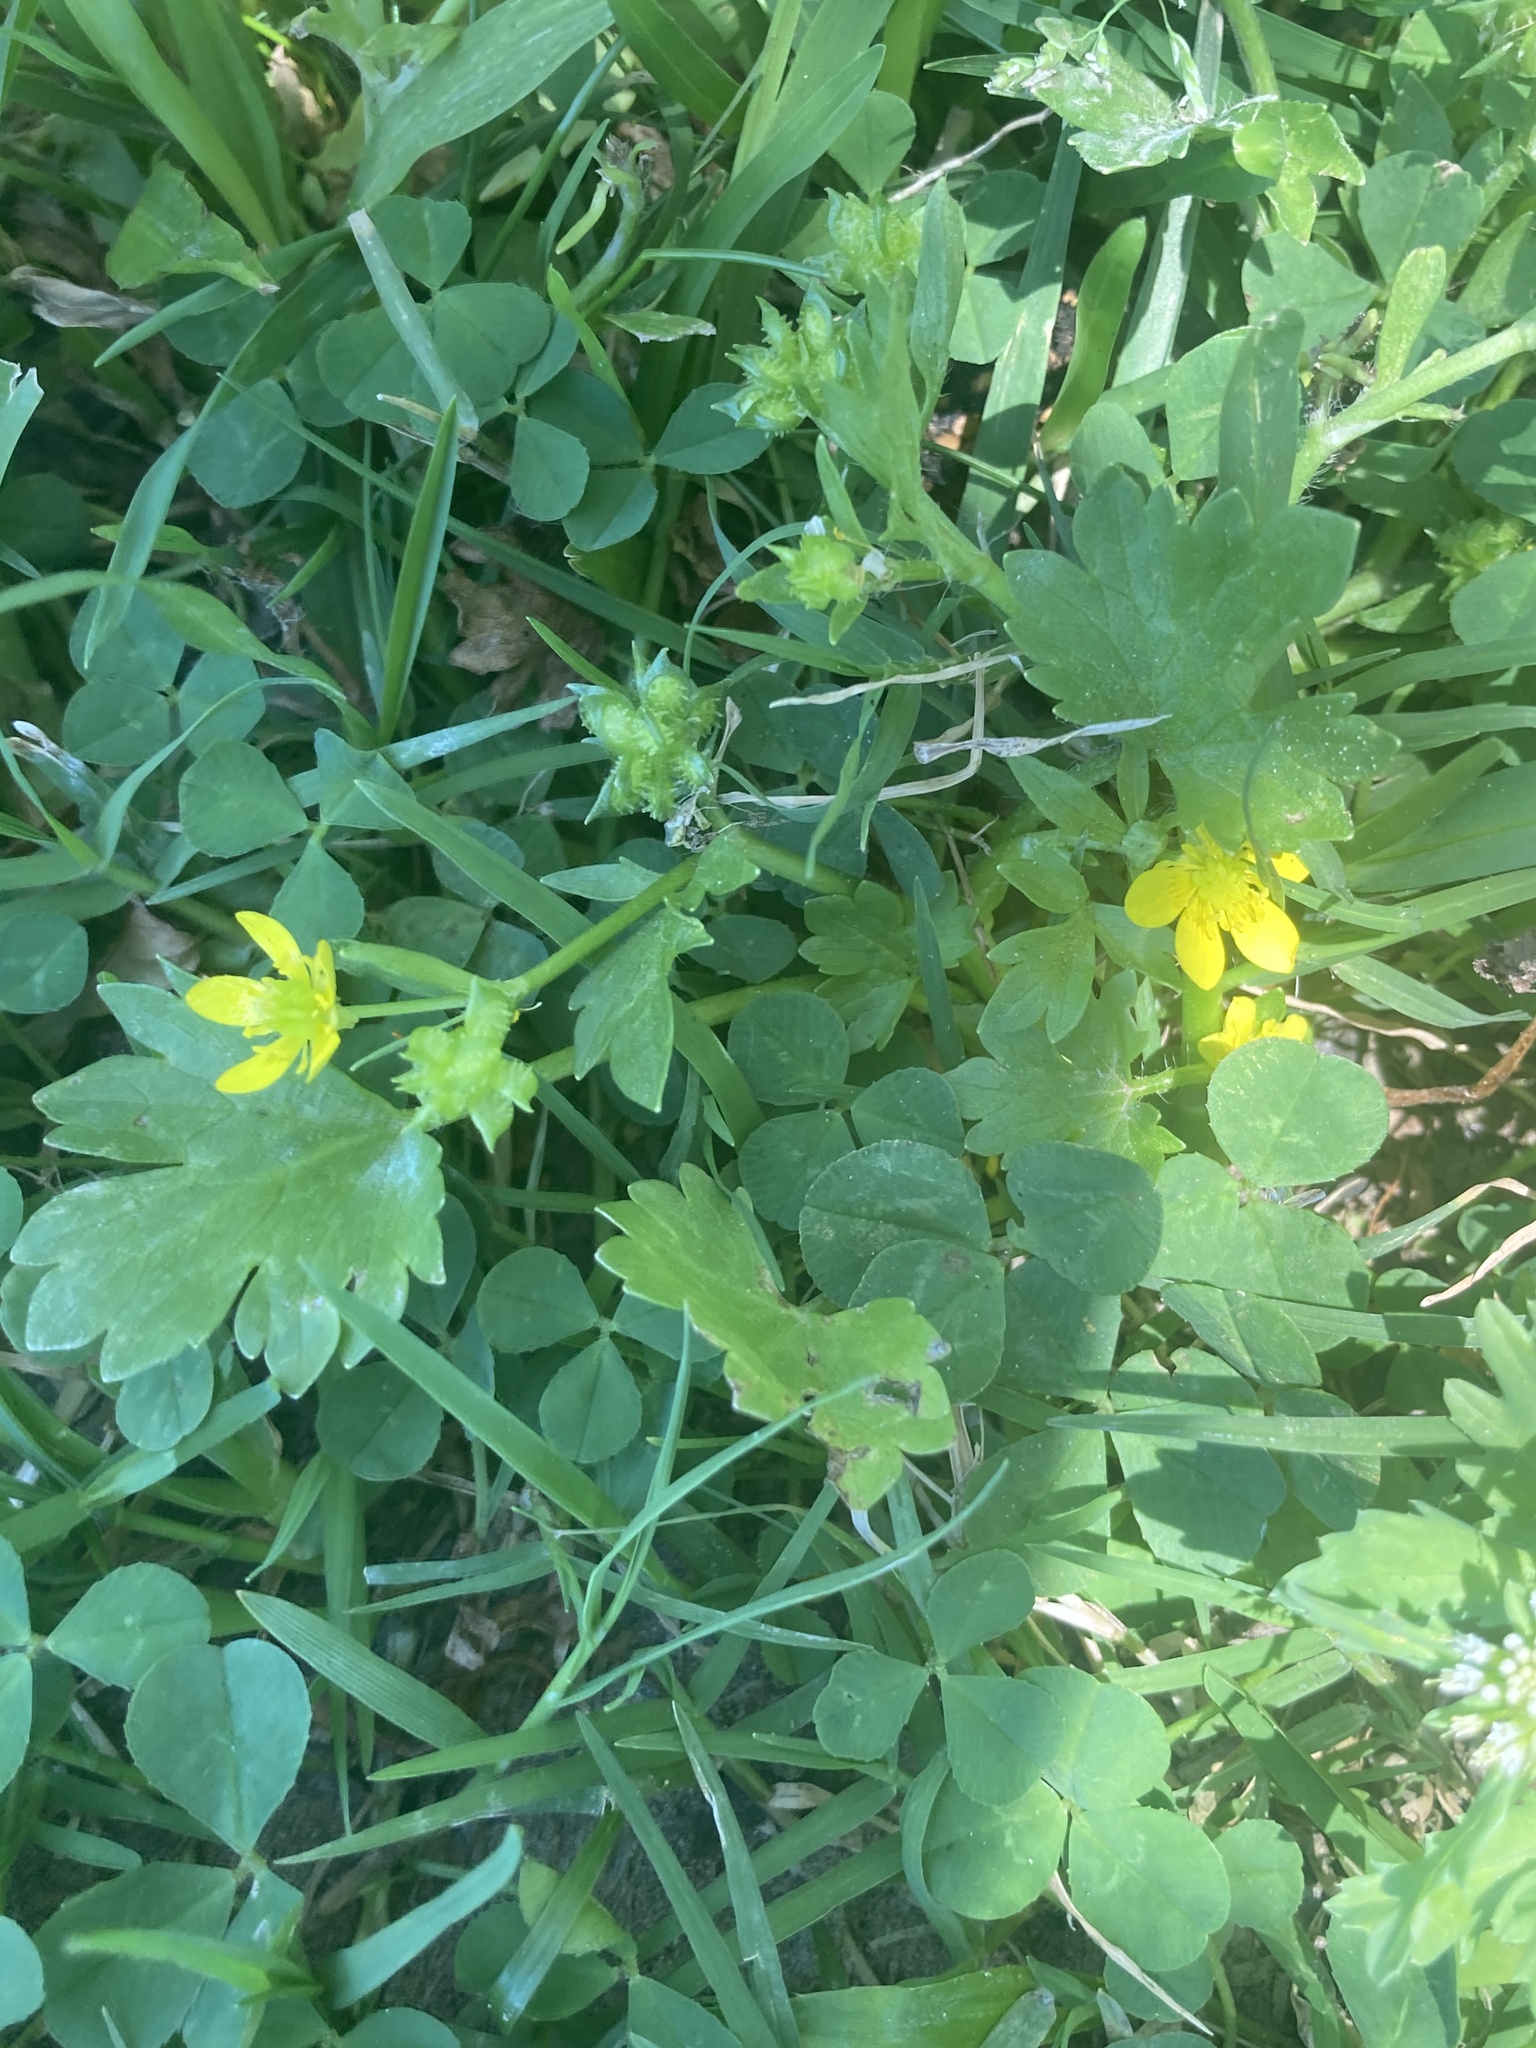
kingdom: Plantae
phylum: Tracheophyta
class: Magnoliopsida
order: Ranunculales
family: Ranunculaceae
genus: Ranunculus
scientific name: Ranunculus muricatus
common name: Rough-fruited buttercup
